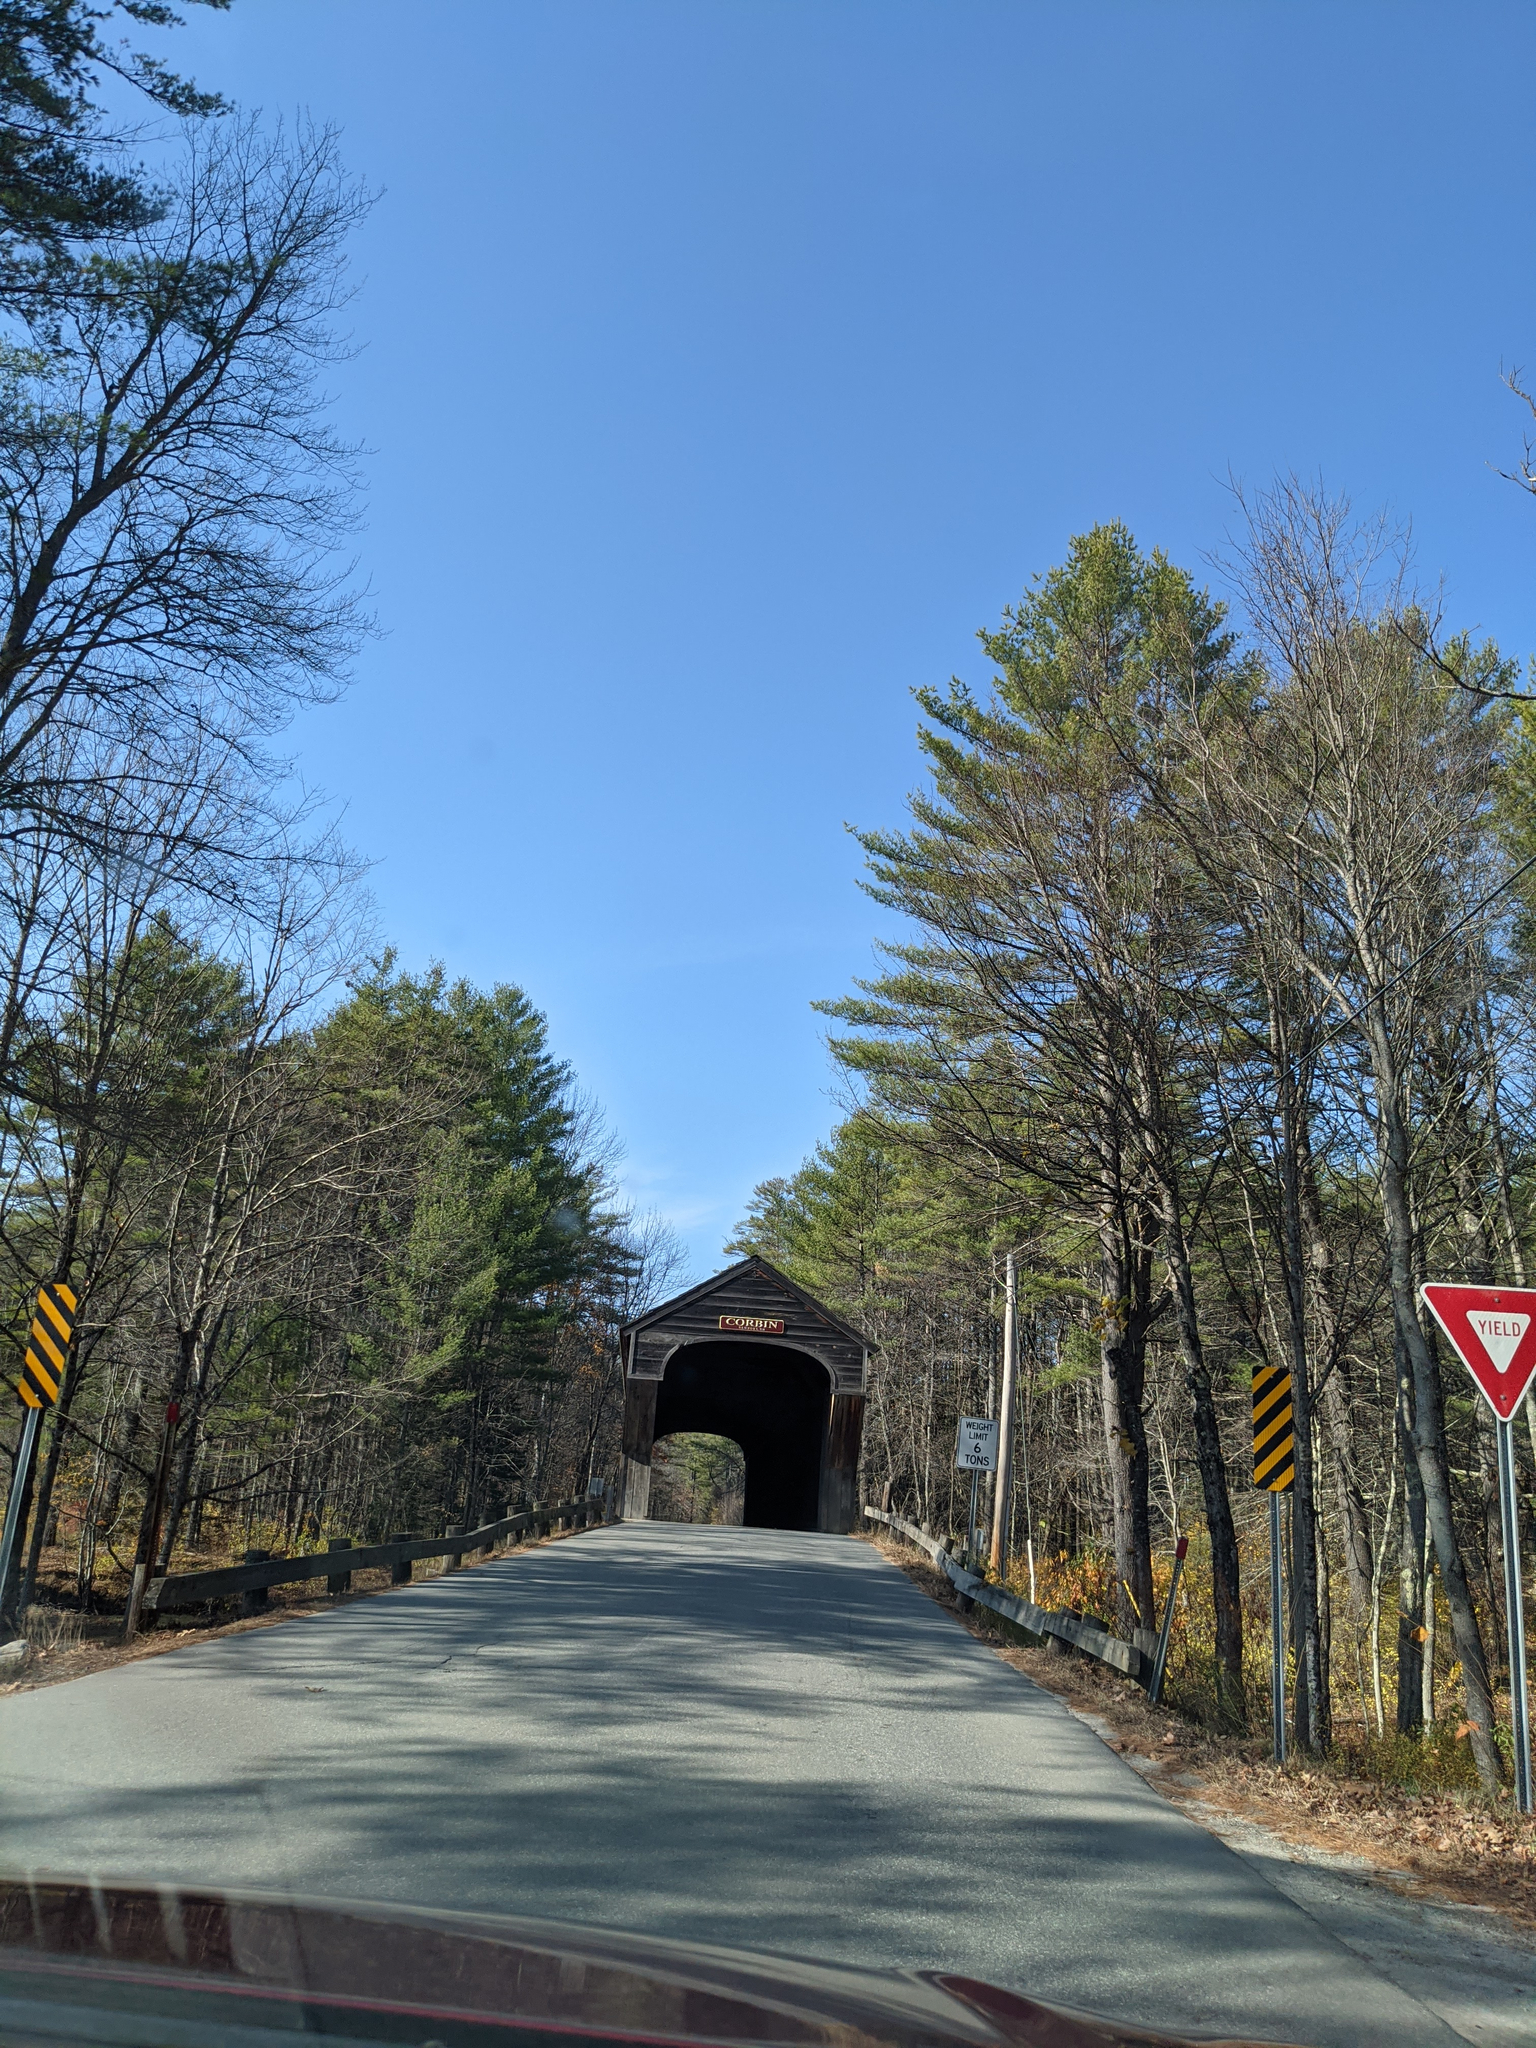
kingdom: Plantae
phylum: Tracheophyta
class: Pinopsida
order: Pinales
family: Pinaceae
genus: Pinus
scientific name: Pinus strobus
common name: Weymouth pine
